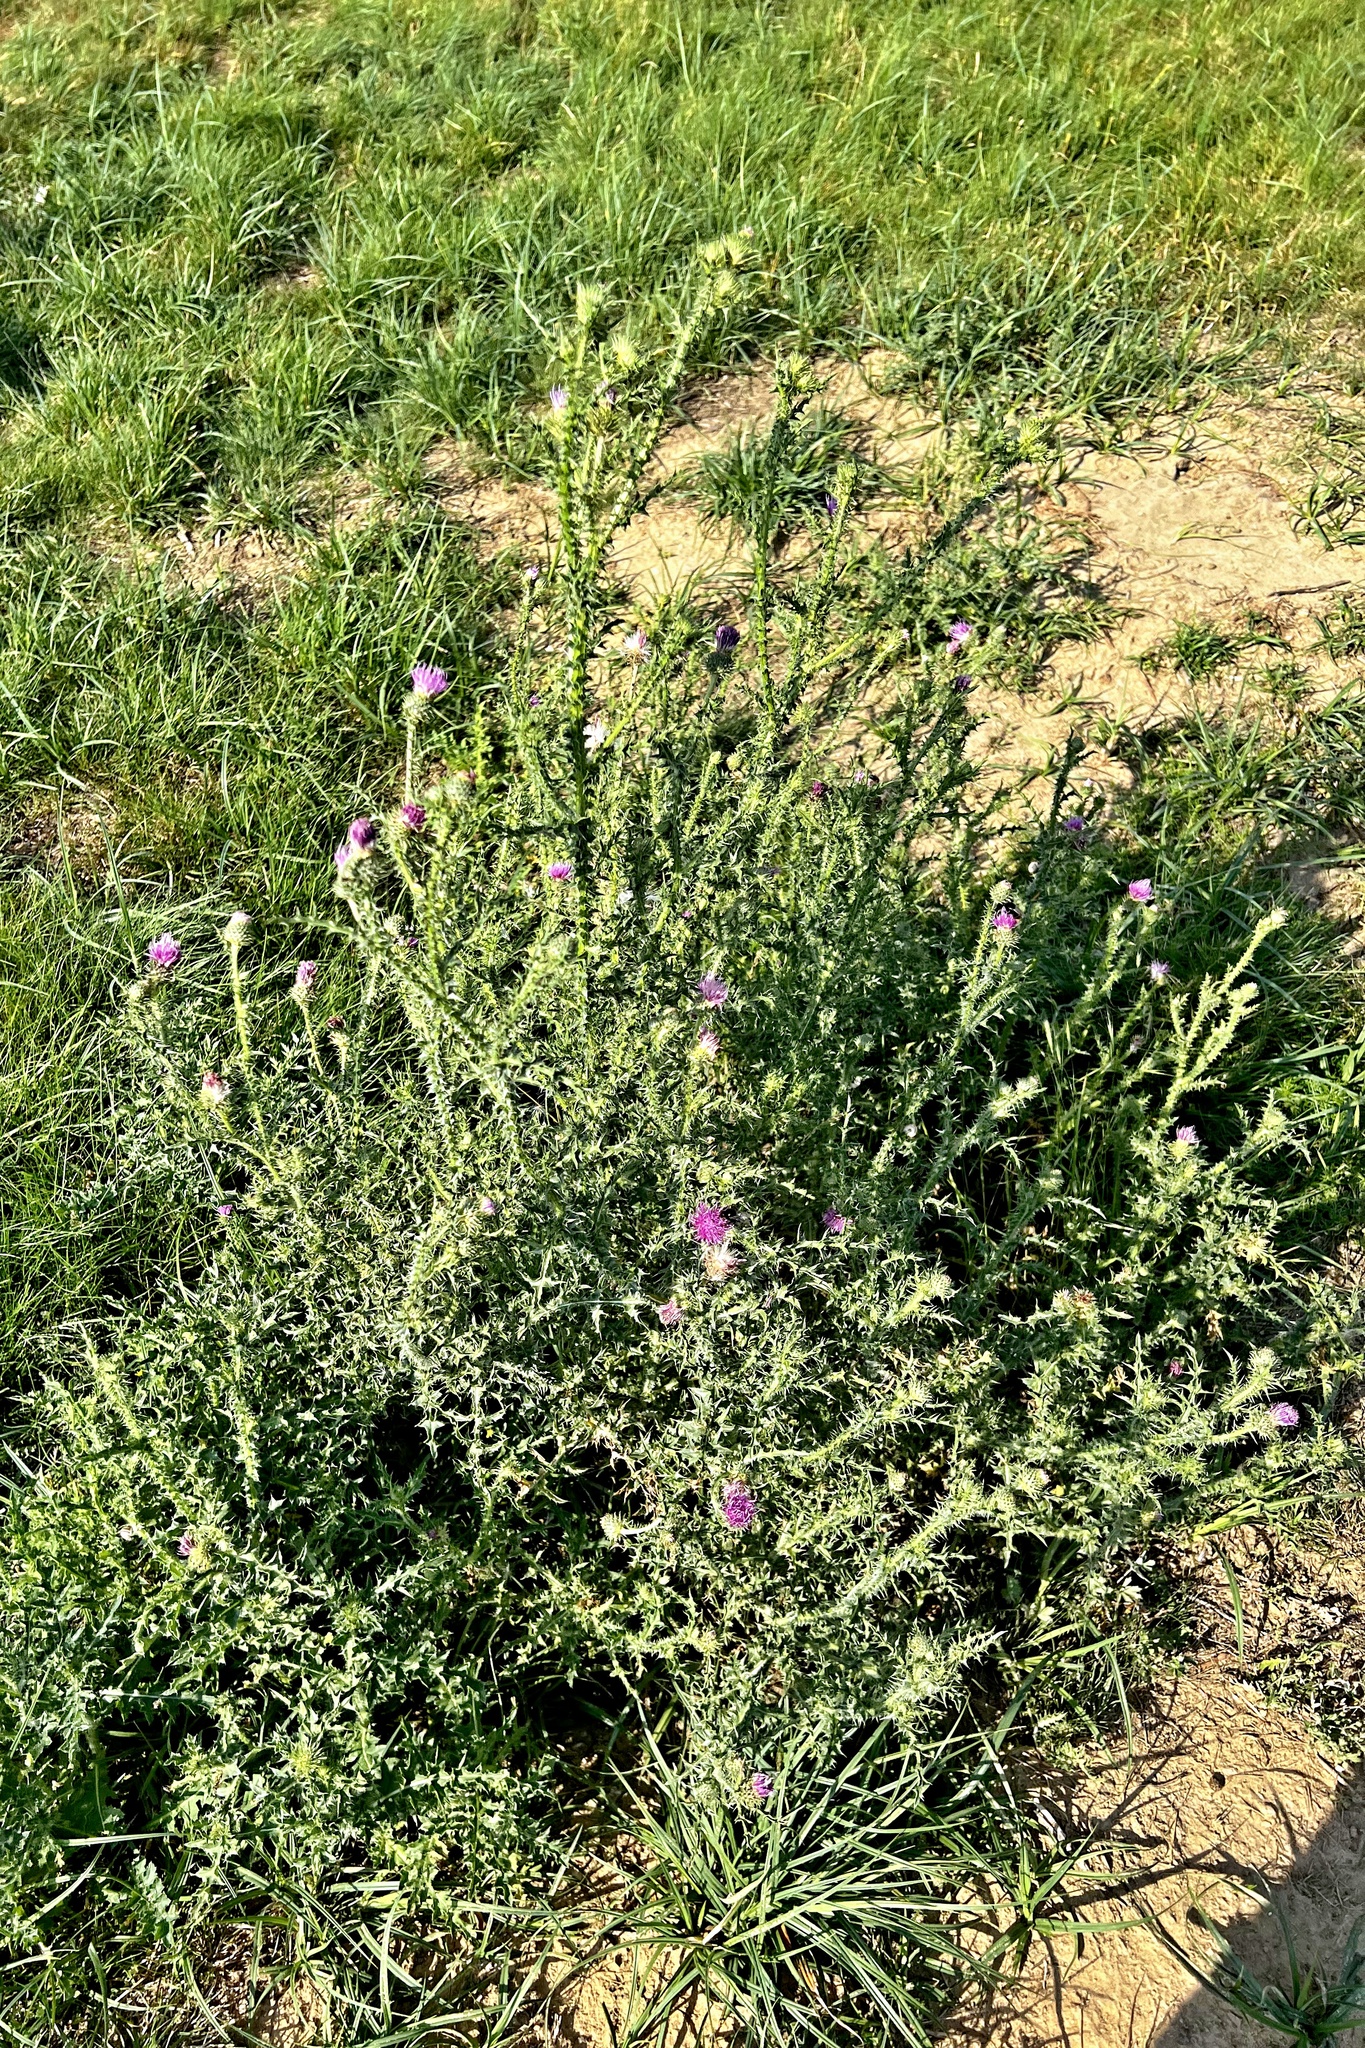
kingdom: Plantae
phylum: Tracheophyta
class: Magnoliopsida
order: Asterales
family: Asteraceae
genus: Carduus
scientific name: Carduus acanthoides
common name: Plumeless thistle
